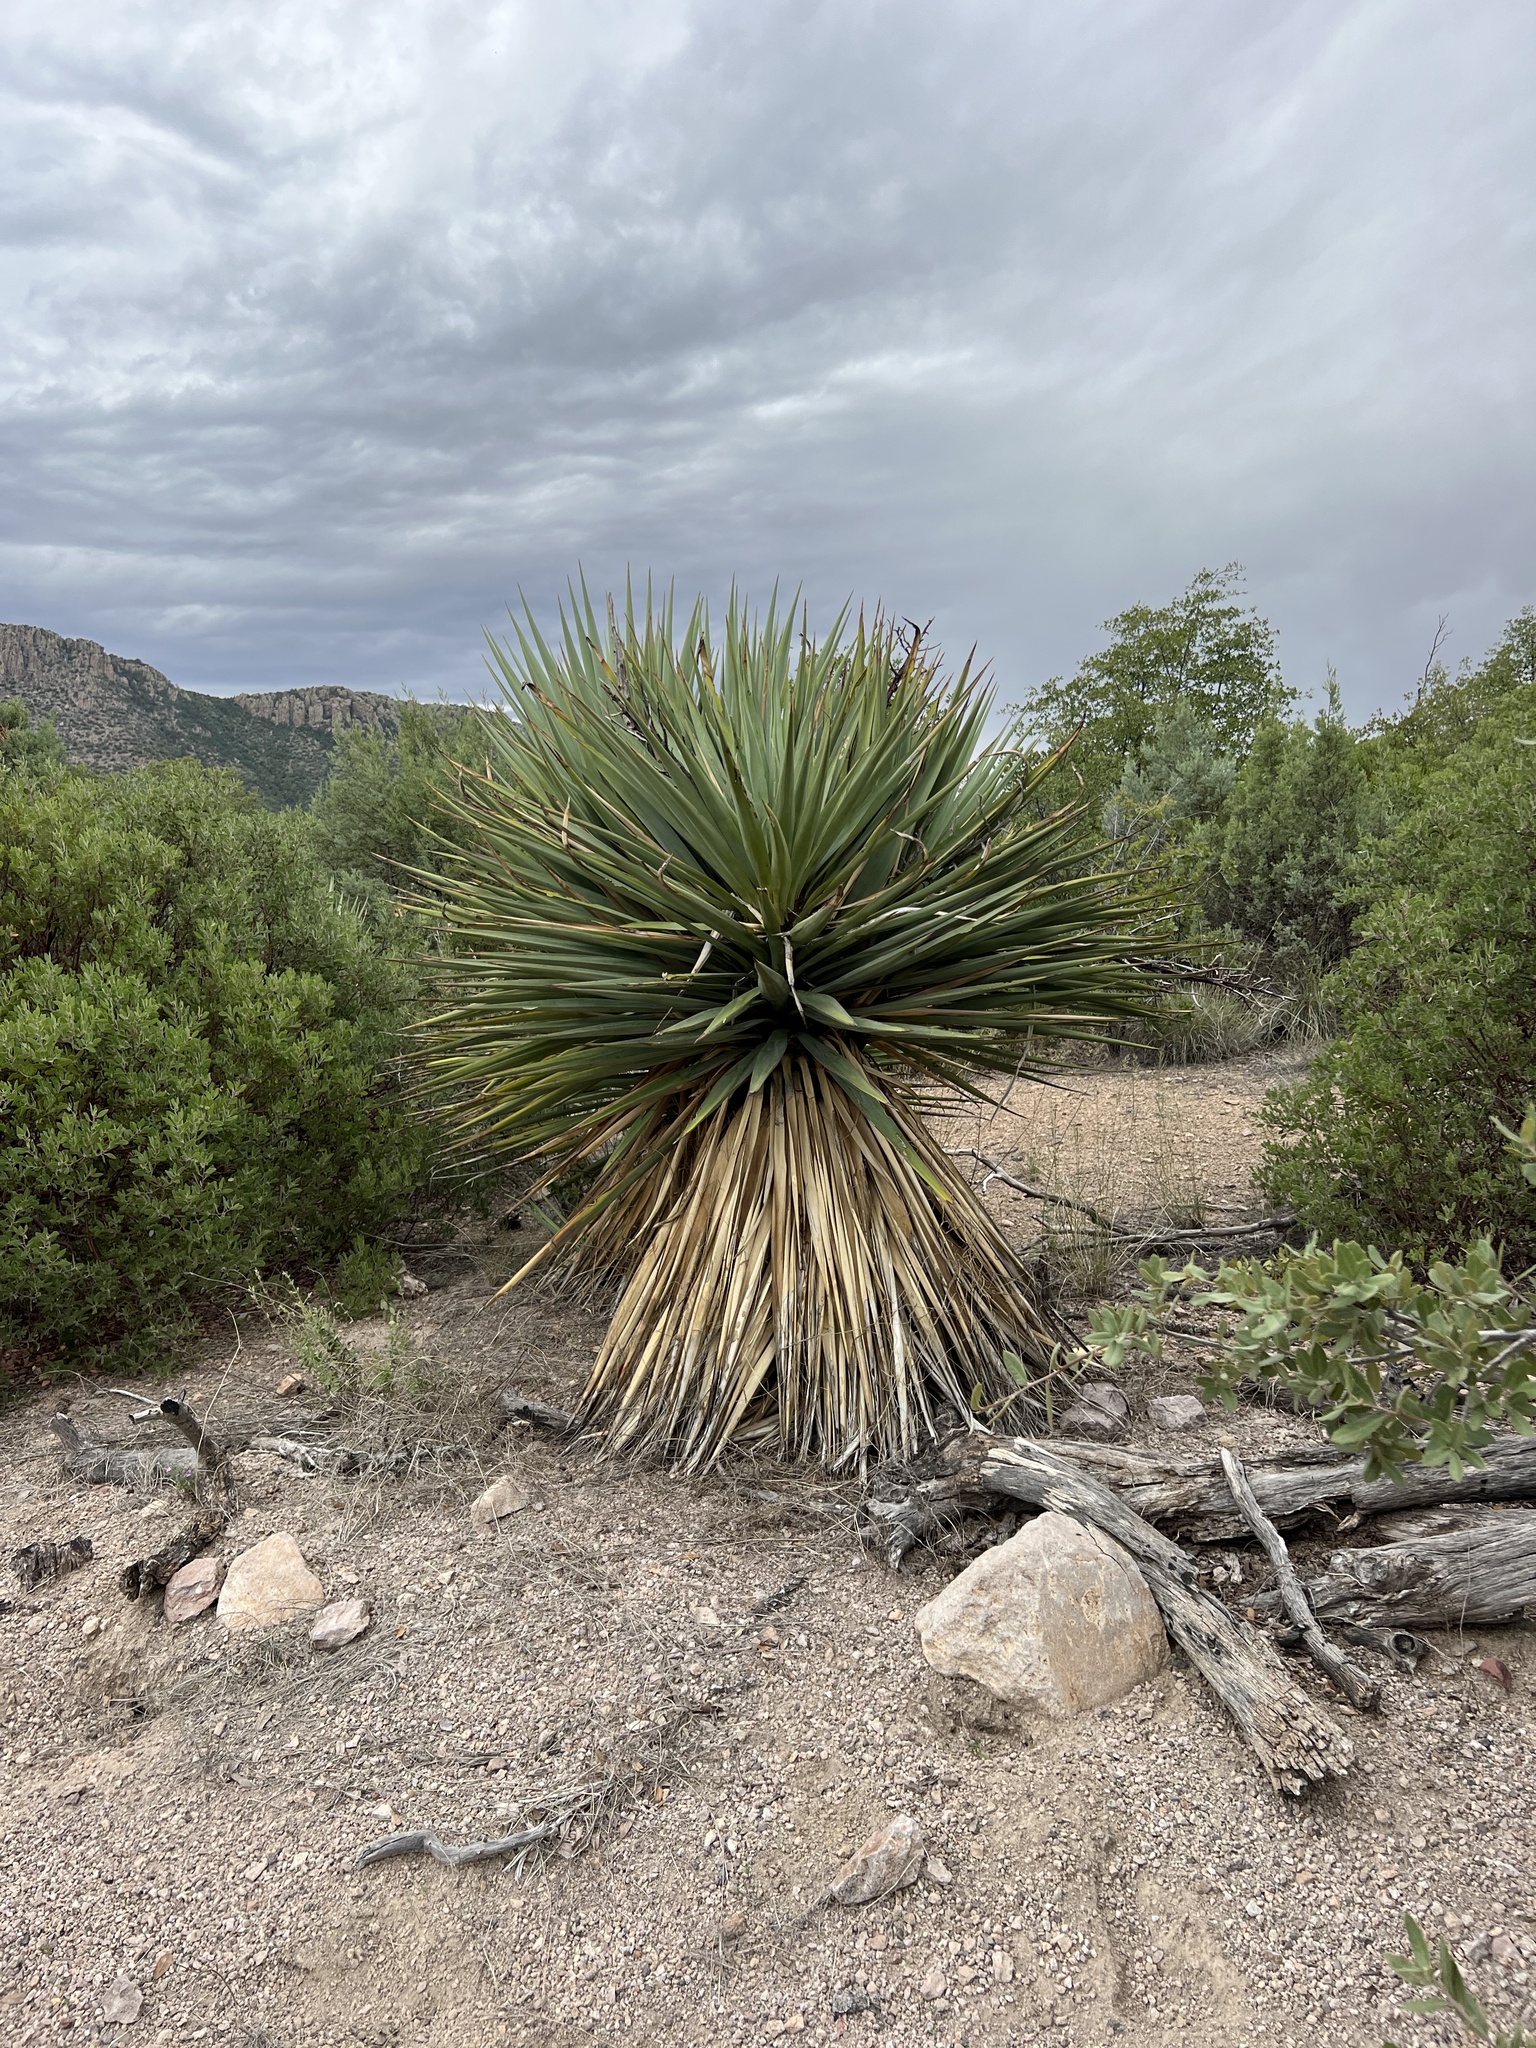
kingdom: Plantae
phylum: Tracheophyta
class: Liliopsida
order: Asparagales
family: Asparagaceae
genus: Yucca
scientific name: Yucca schottii
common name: Hoary yucca
